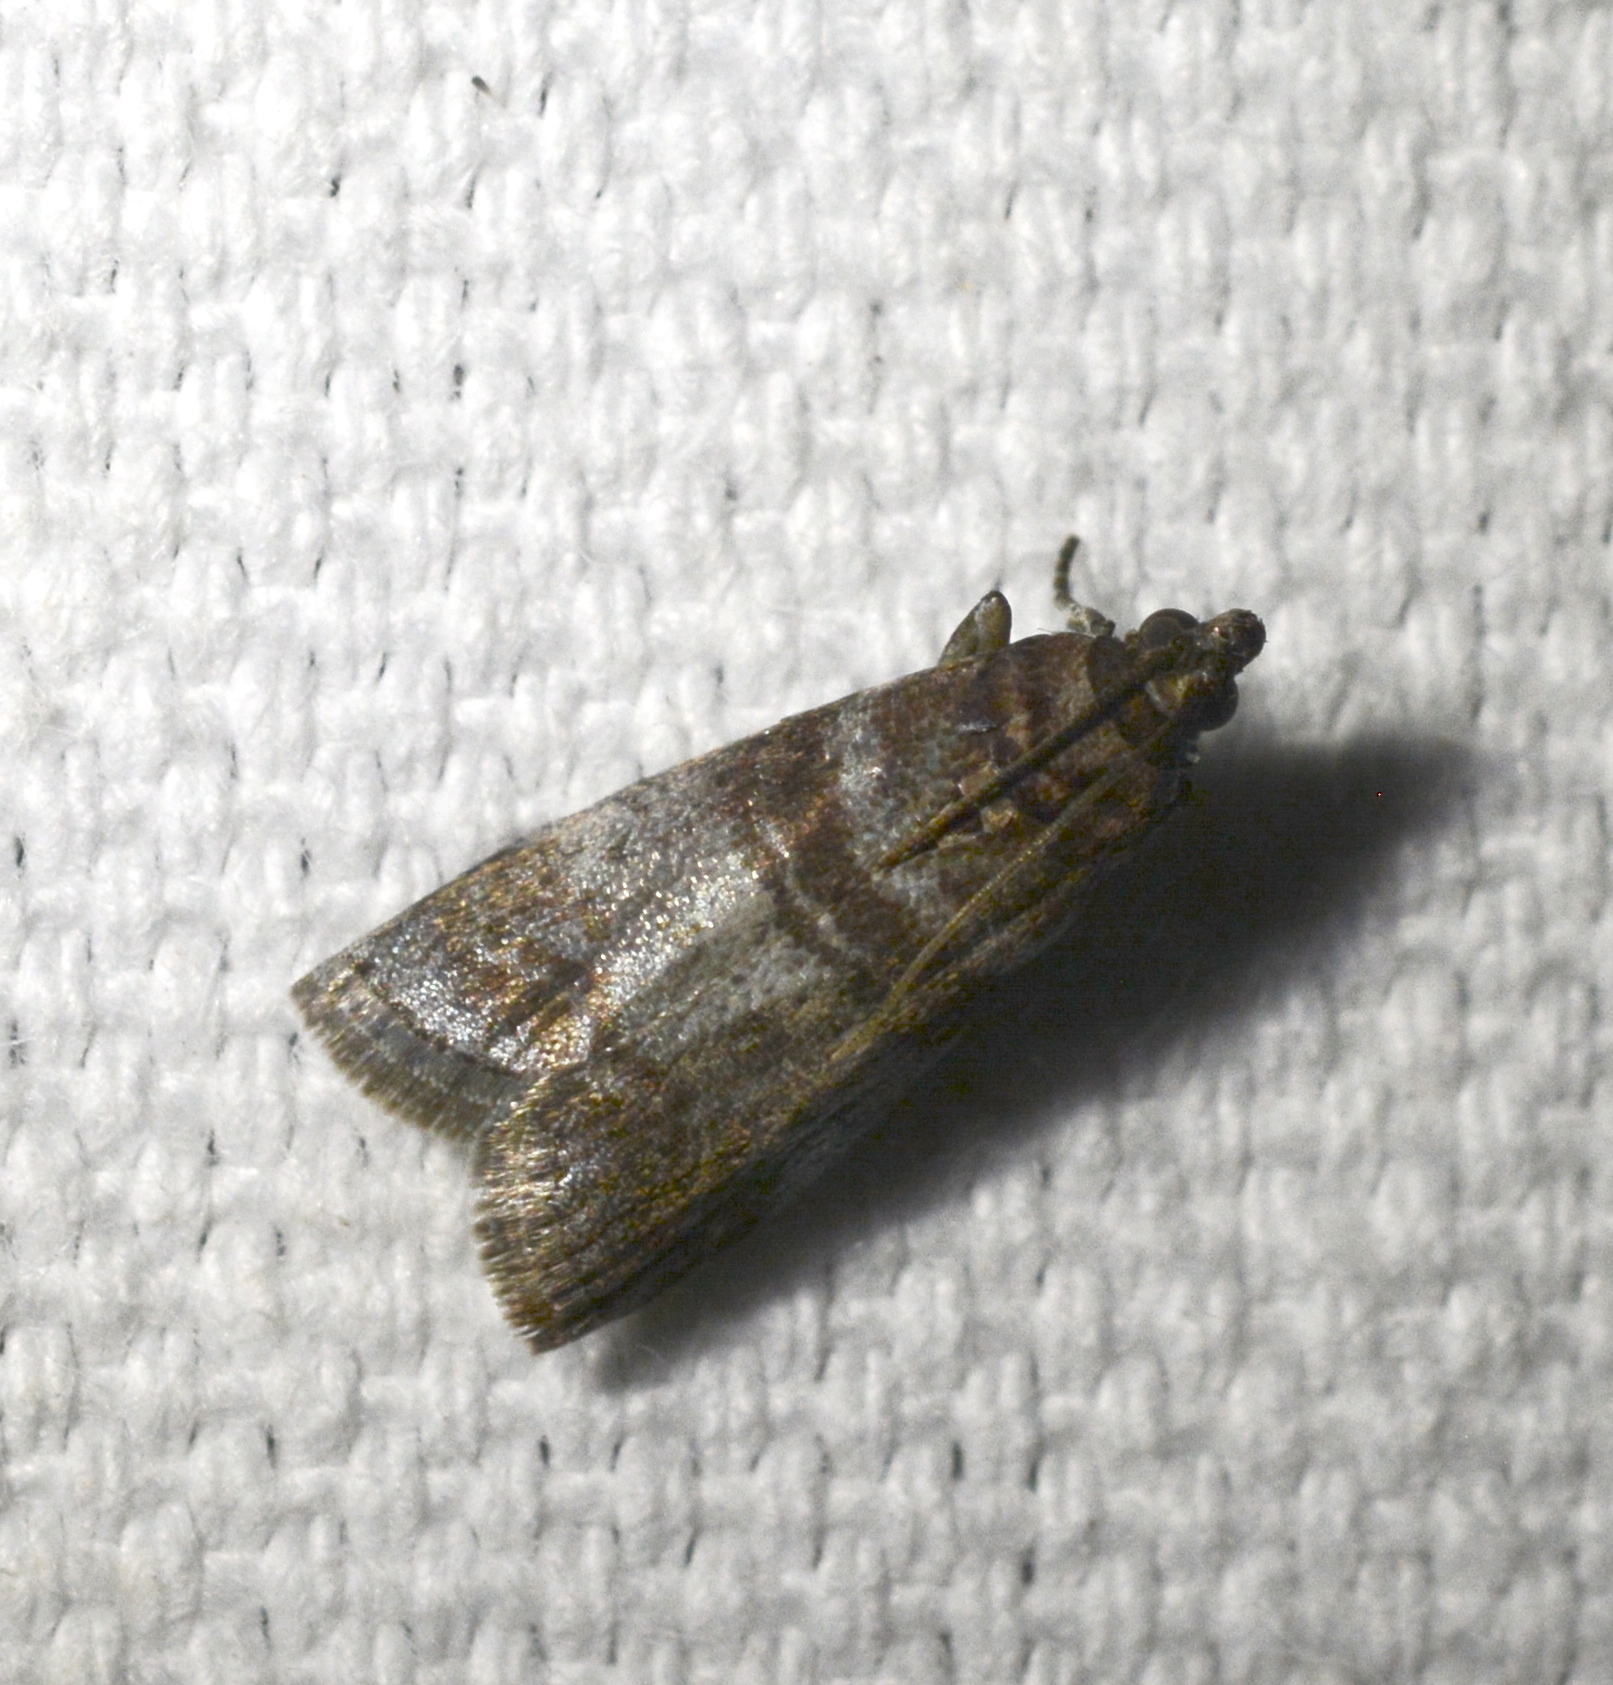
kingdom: Animalia
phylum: Arthropoda
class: Insecta
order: Lepidoptera
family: Pyralidae
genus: Sciota
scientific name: Sciota uvinella
